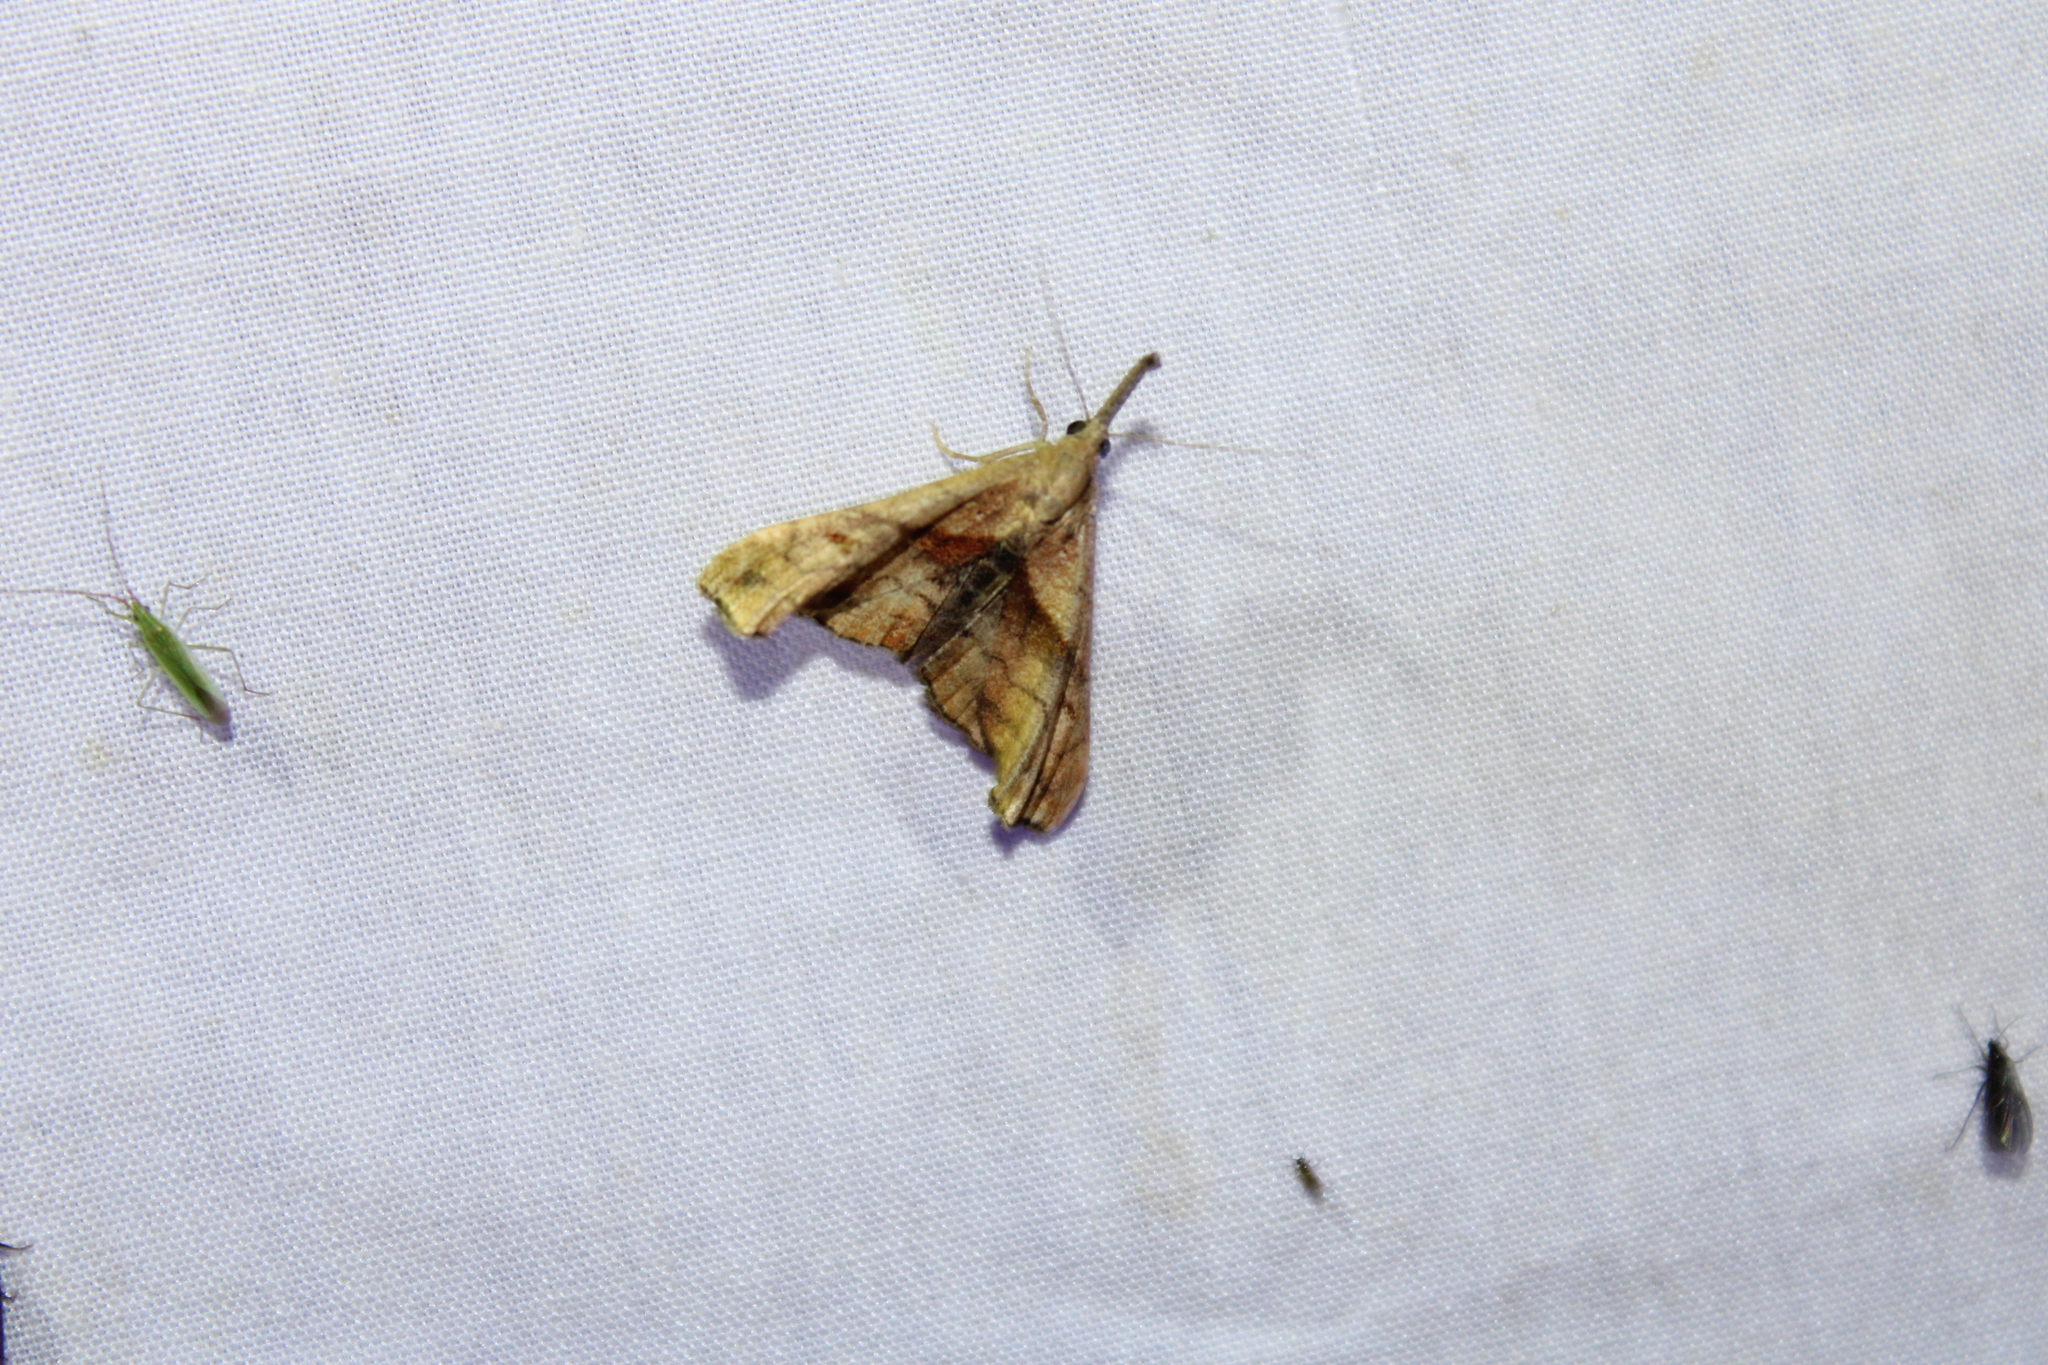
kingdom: Animalia
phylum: Arthropoda
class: Insecta
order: Lepidoptera
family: Erebidae
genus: Palthis
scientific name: Palthis angulalis
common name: Dark-spotted palthis moth
